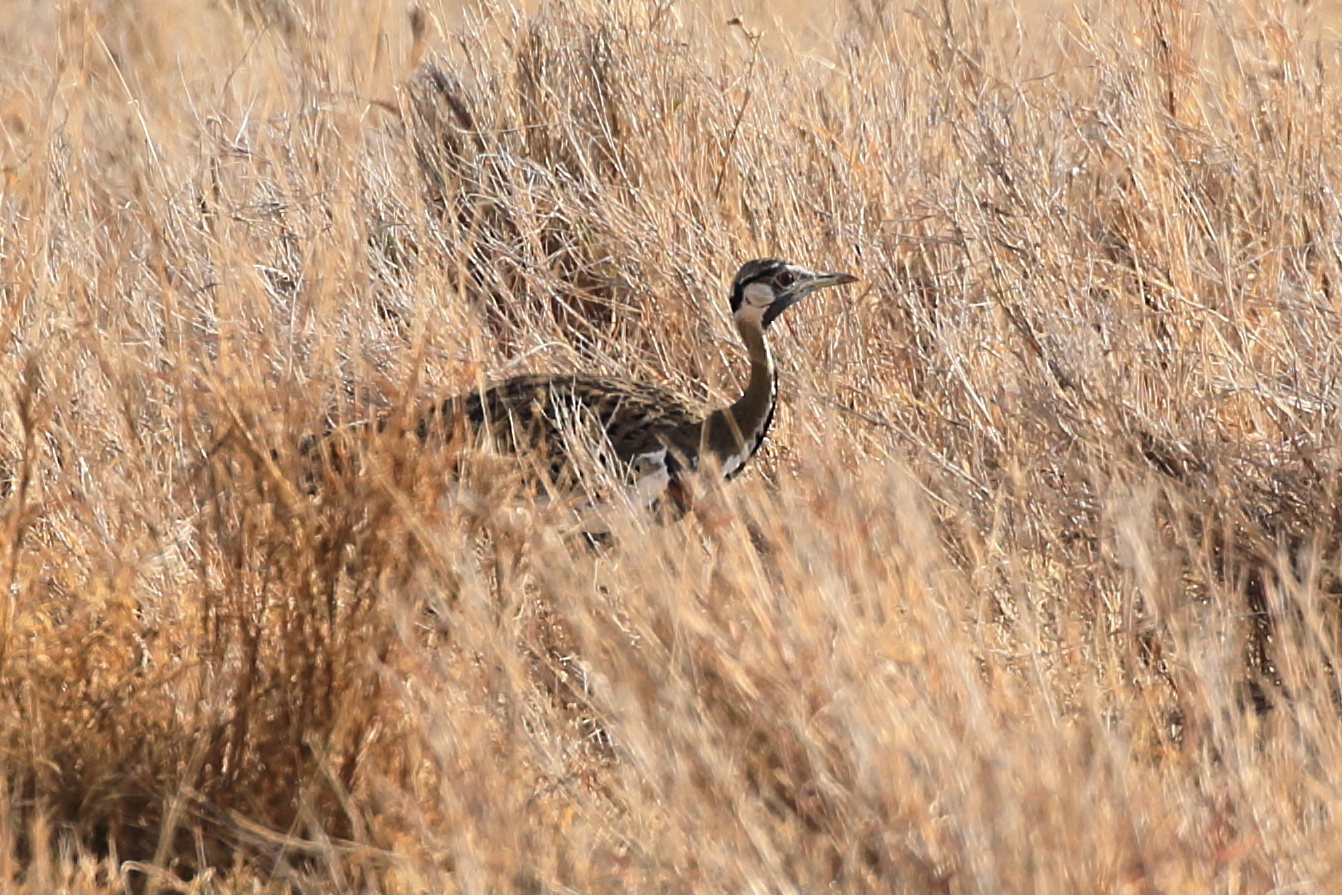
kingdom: Animalia
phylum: Chordata
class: Aves
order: Otidiformes
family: Otididae
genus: Lissotis
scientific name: Lissotis melanogaster
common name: Black-bellied bustard
